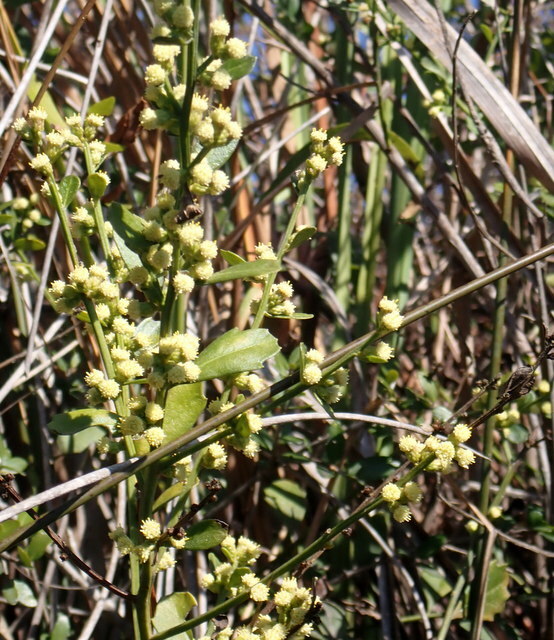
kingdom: Plantae
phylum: Tracheophyta
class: Magnoliopsida
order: Asterales
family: Asteraceae
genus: Baccharis
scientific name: Baccharis glomeruliflora
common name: Silverling groundsel bush
